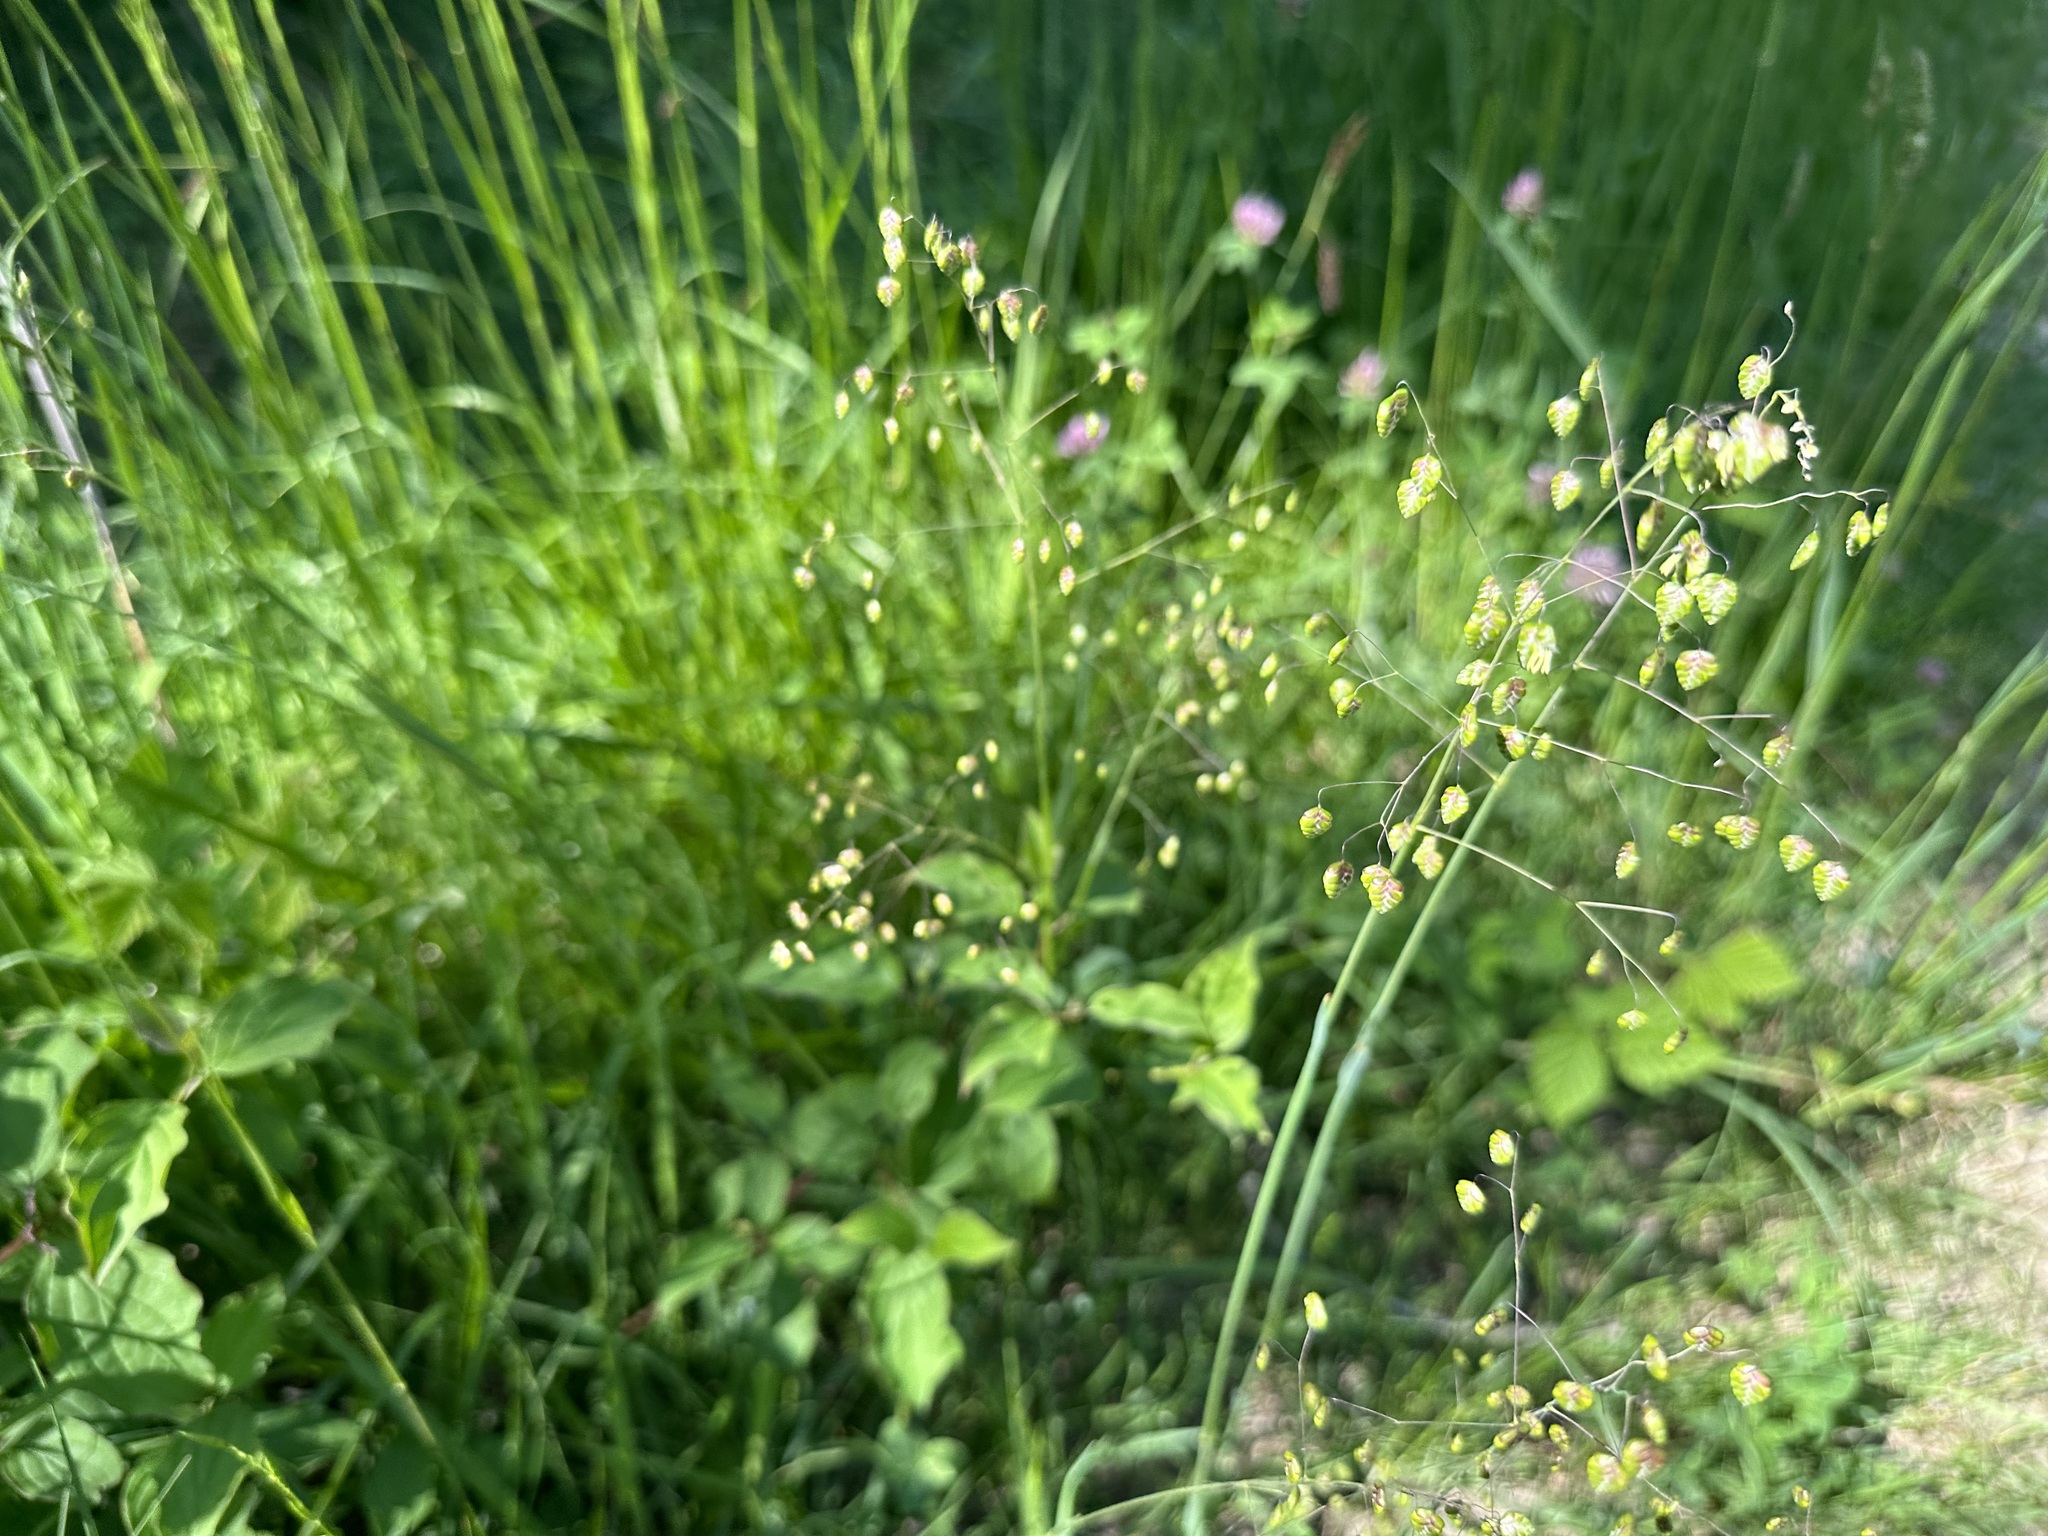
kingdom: Plantae
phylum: Tracheophyta
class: Liliopsida
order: Poales
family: Poaceae
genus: Briza
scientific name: Briza media
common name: Quaking grass
